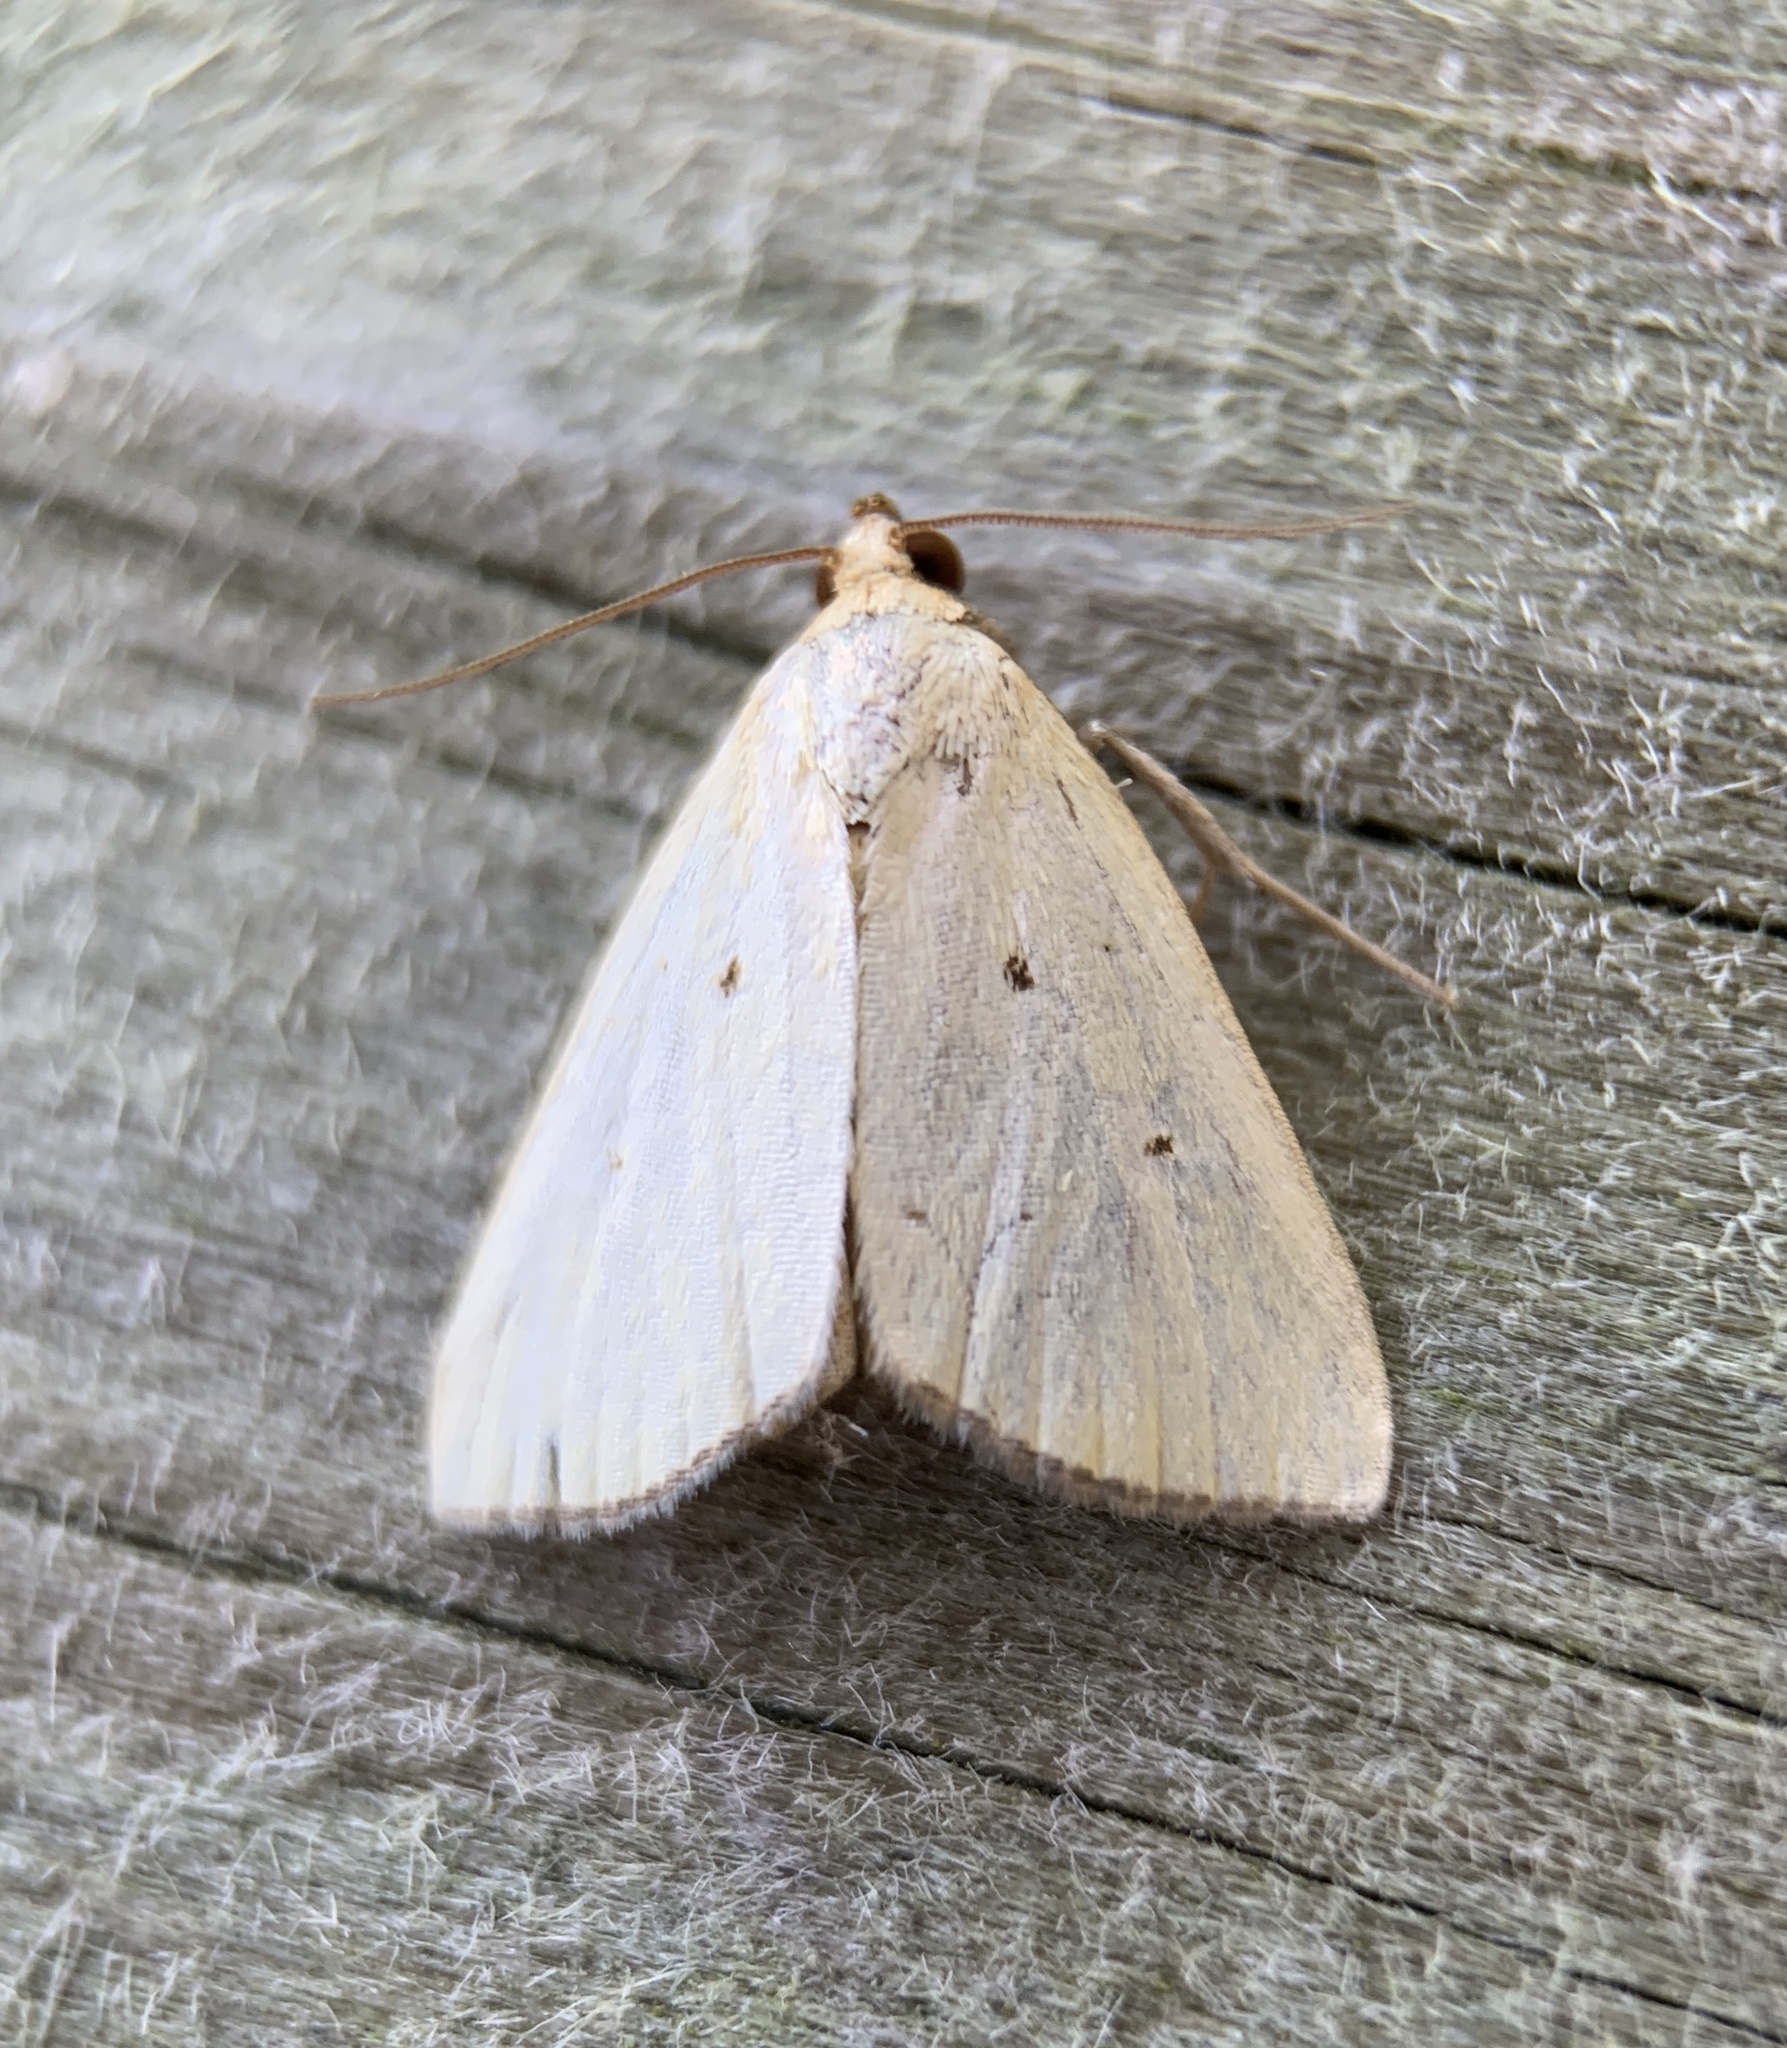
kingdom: Animalia
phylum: Arthropoda
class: Insecta
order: Lepidoptera
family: Noctuidae
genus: Marimatha
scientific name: Marimatha nigrofimbria
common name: Black-bordered lemon moth
